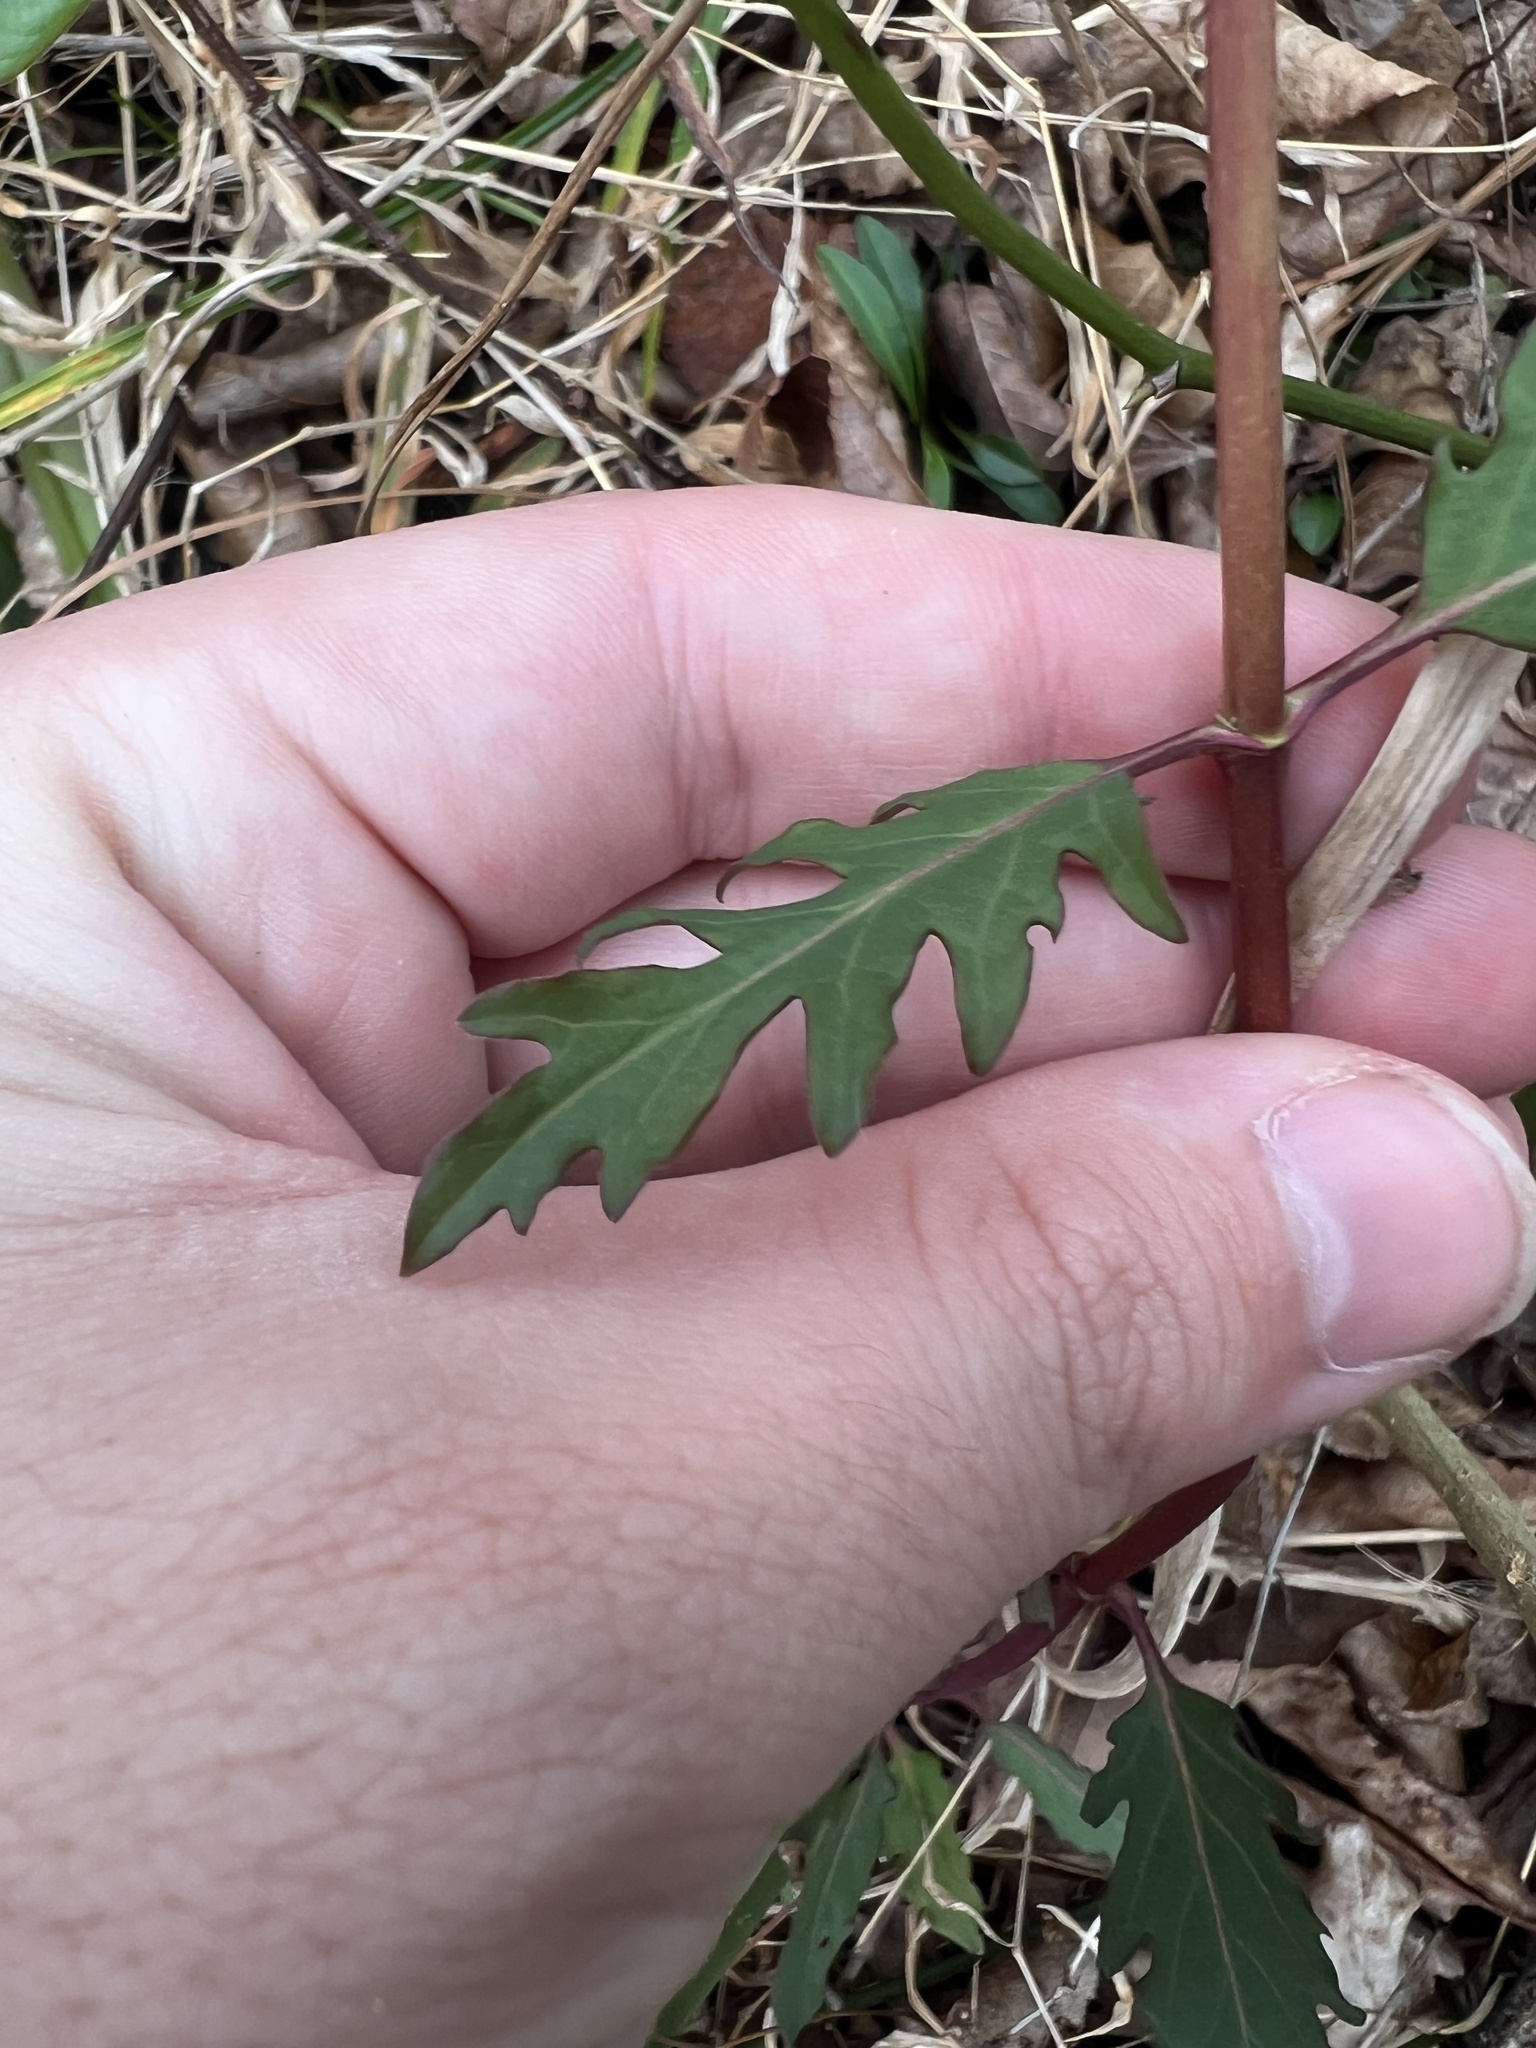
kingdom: Plantae
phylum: Tracheophyta
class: Magnoliopsida
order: Dipsacales
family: Caprifoliaceae
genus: Lonicera
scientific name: Lonicera japonica
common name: Japanese honeysuckle
